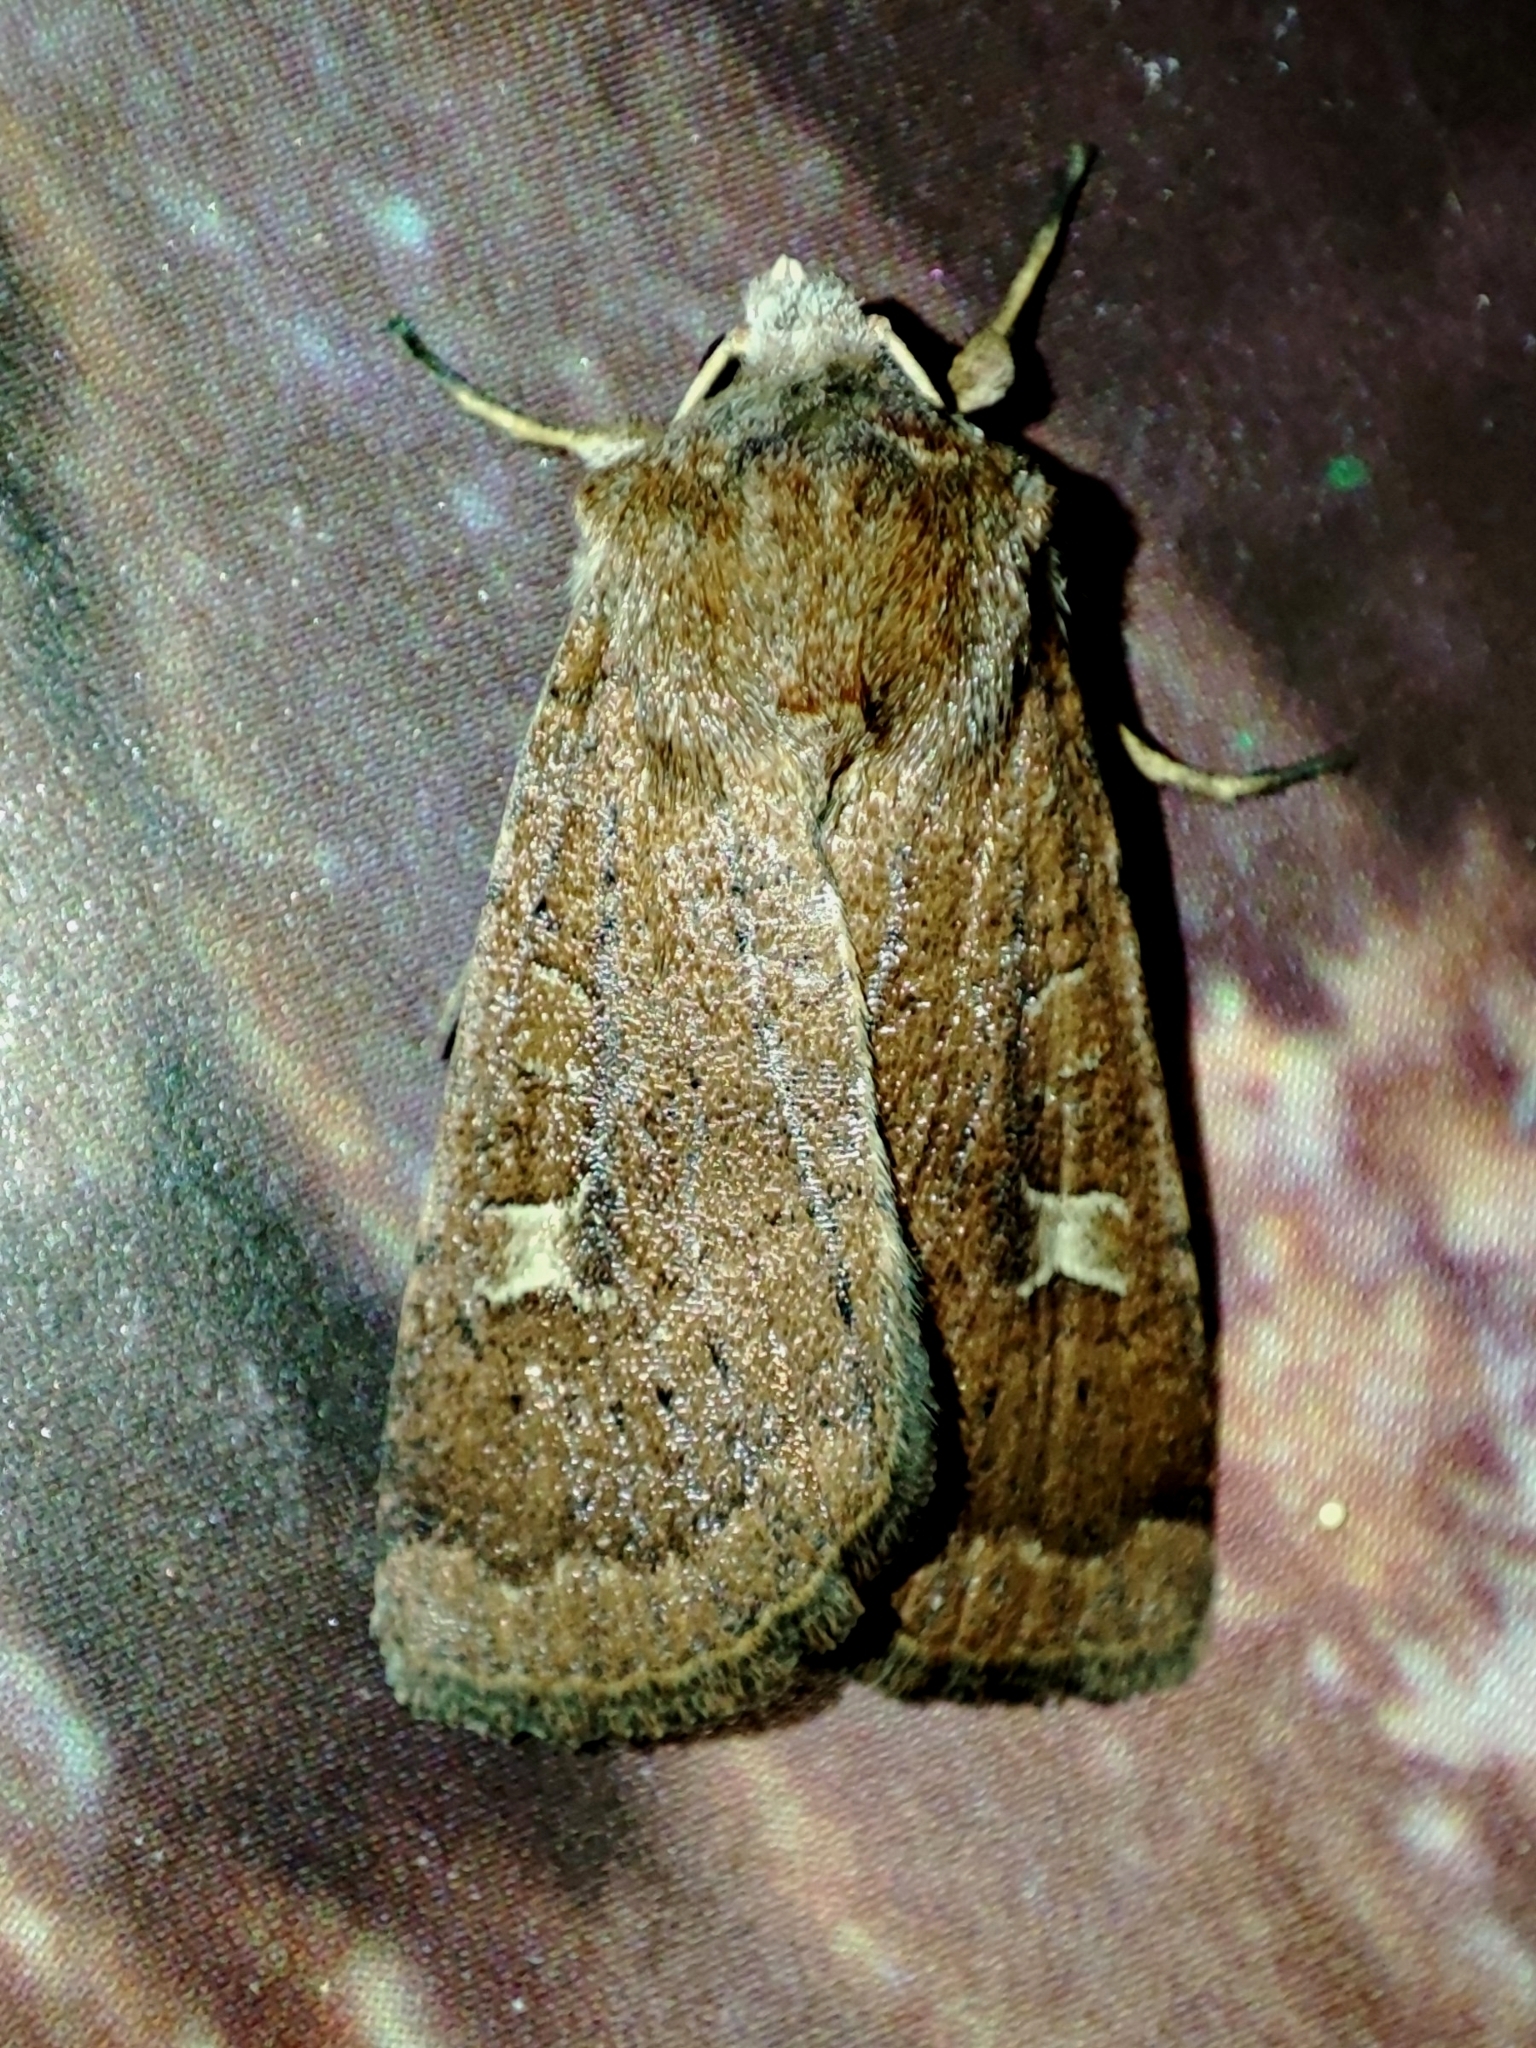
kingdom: Animalia
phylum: Arthropoda
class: Insecta
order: Lepidoptera
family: Noctuidae
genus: Xestia
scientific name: Xestia xanthographa
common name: Square-spot rustic
